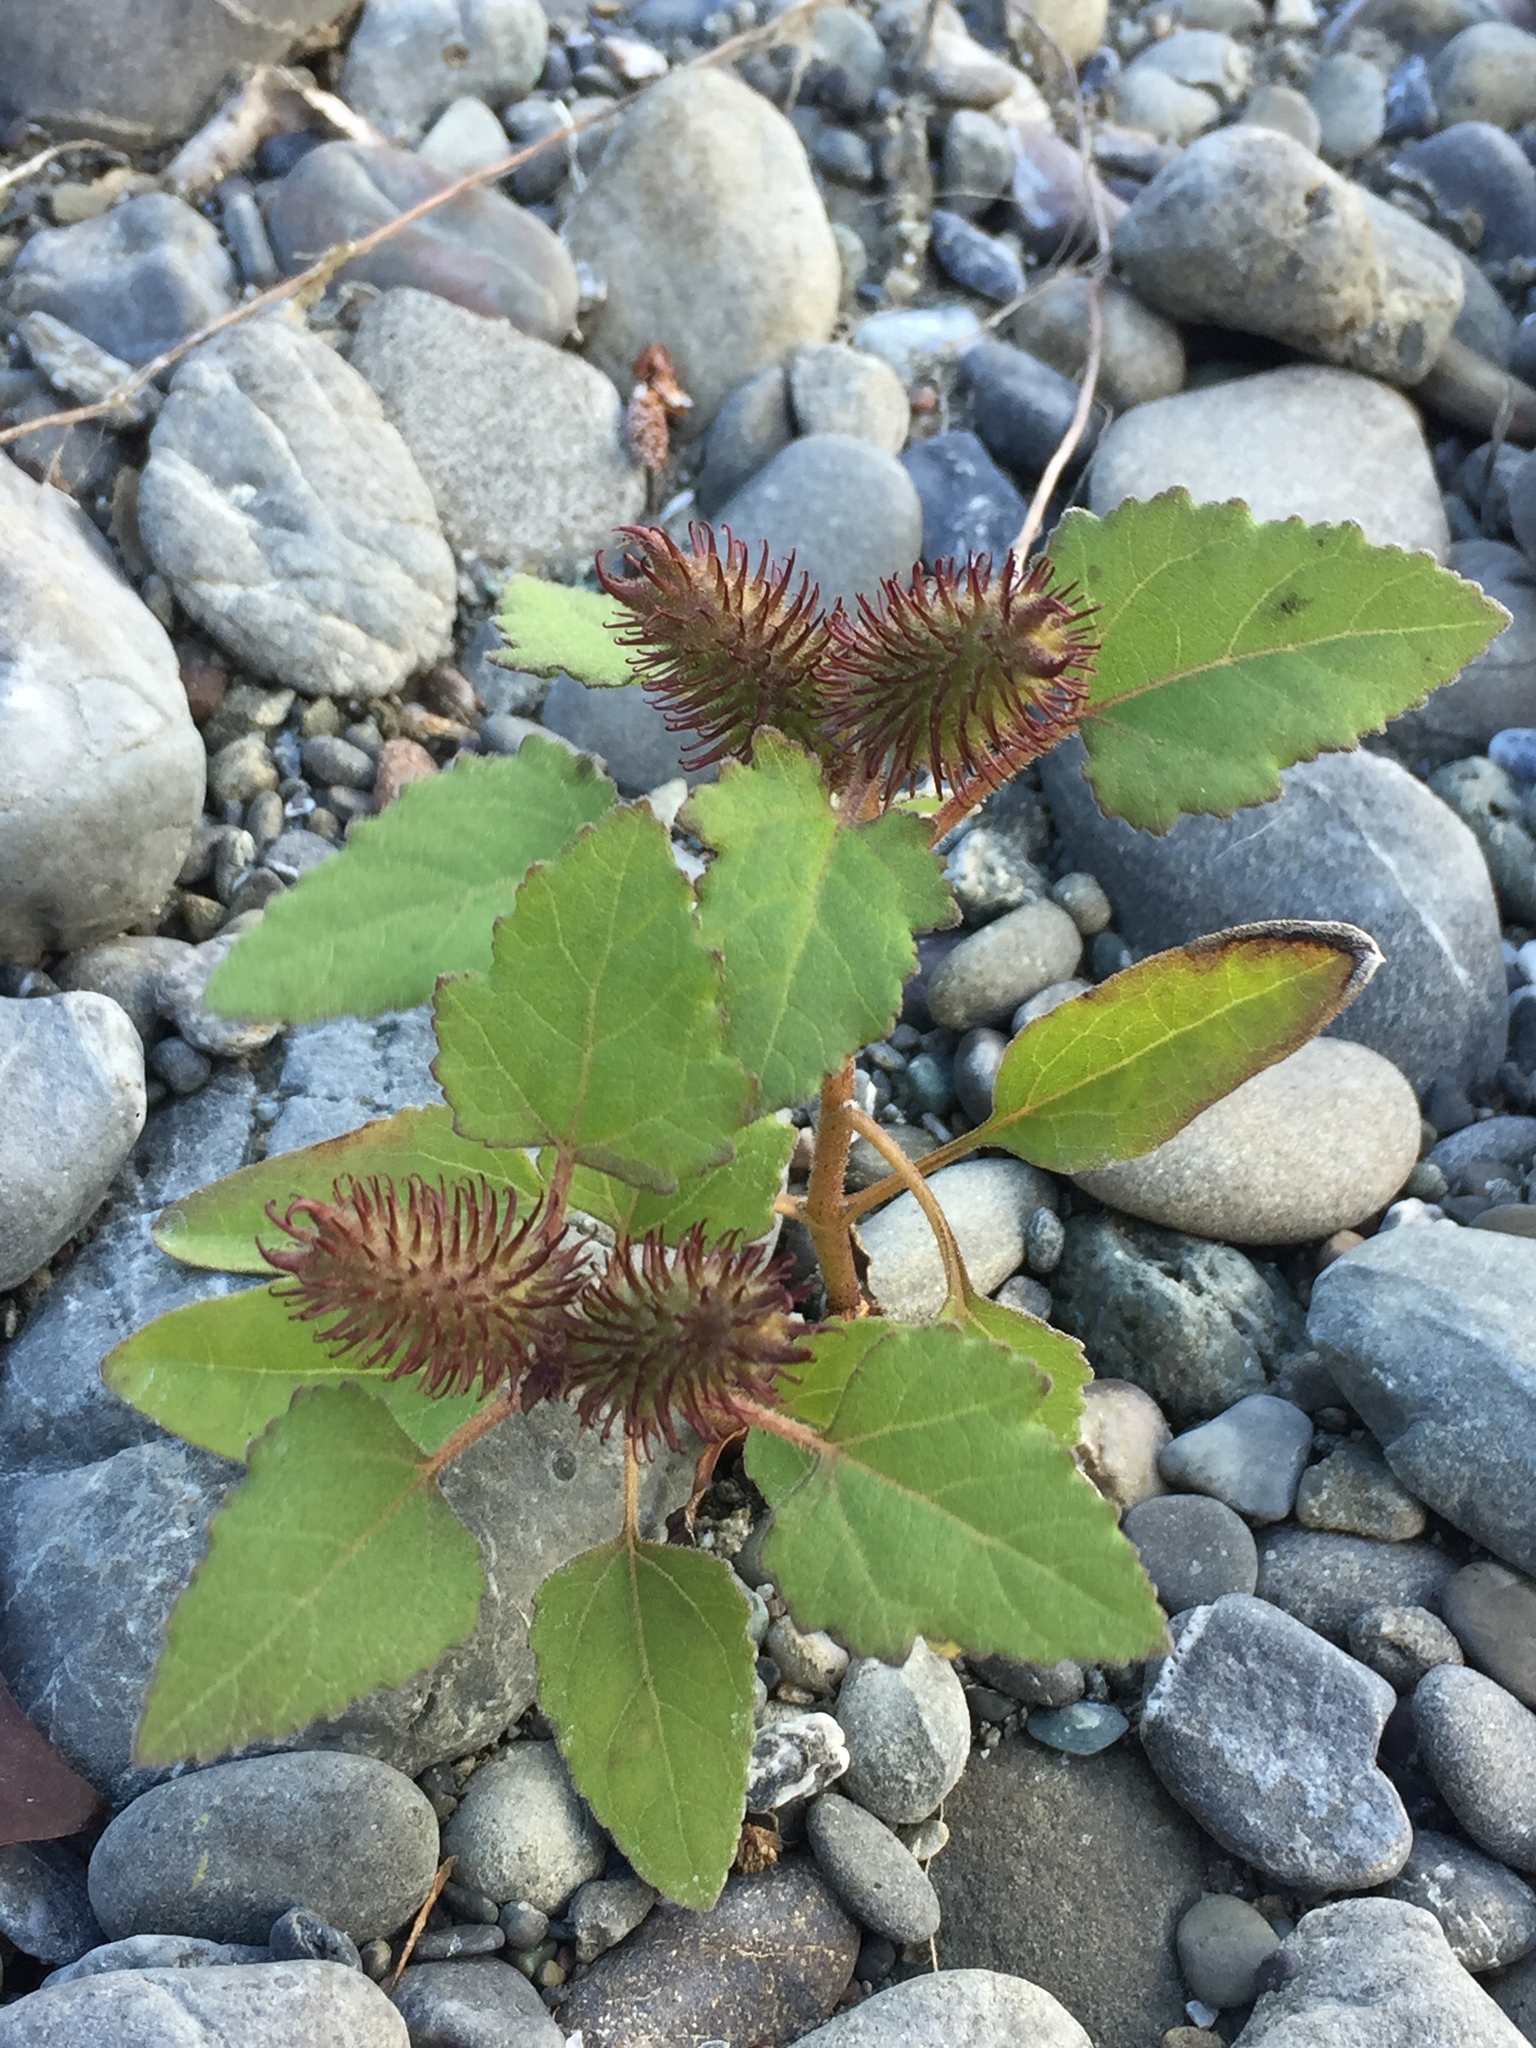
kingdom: Plantae
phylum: Tracheophyta
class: Magnoliopsida
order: Asterales
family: Asteraceae
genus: Xanthium
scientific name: Xanthium strumarium
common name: Rough cocklebur
